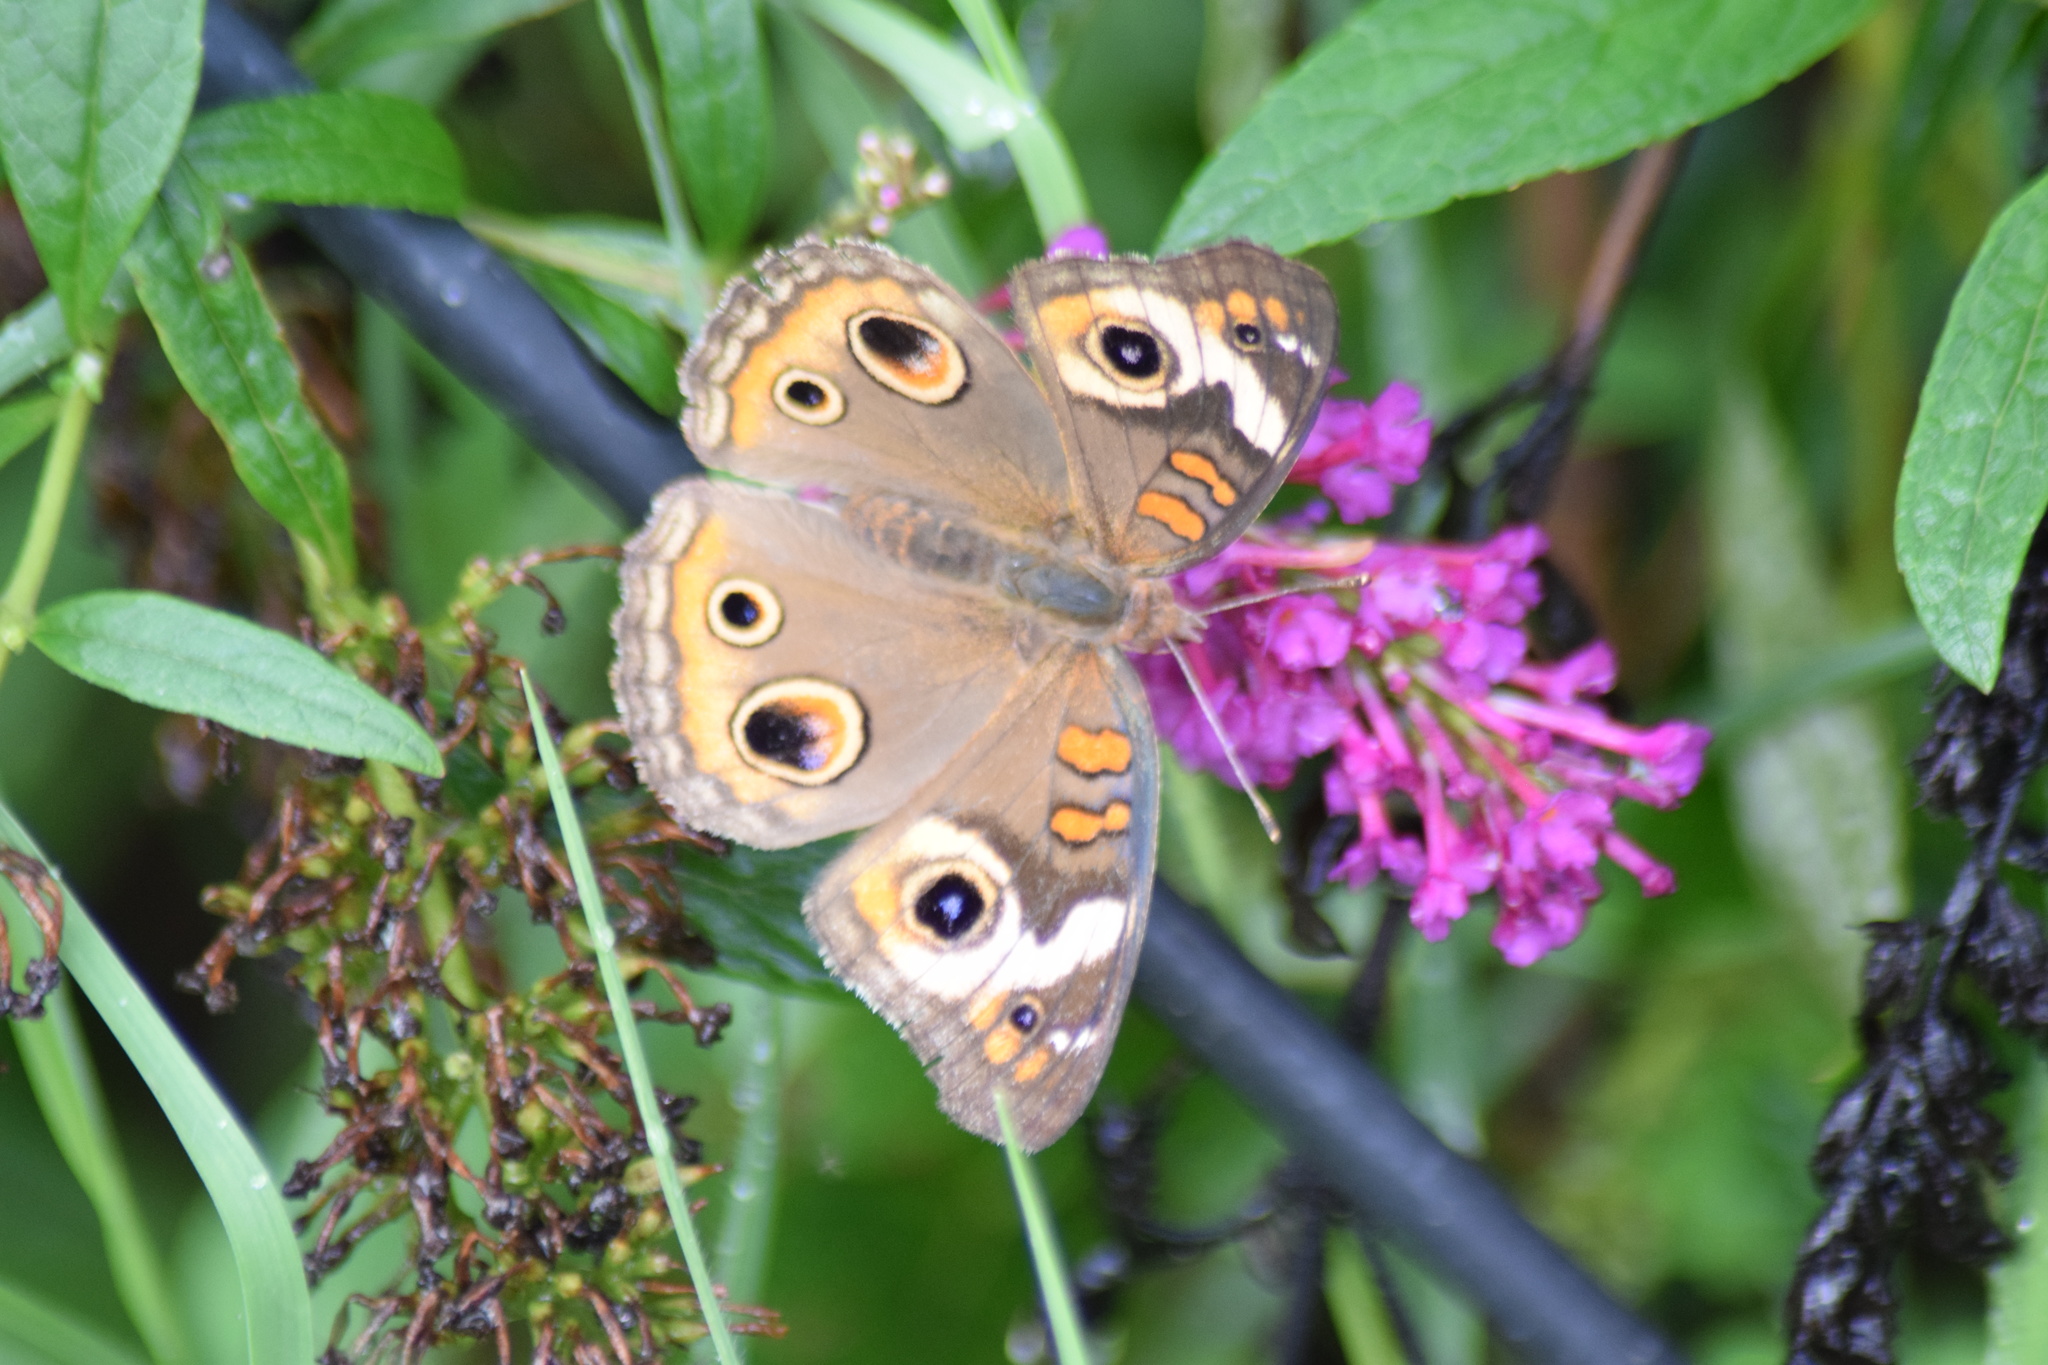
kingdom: Animalia
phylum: Arthropoda
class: Insecta
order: Lepidoptera
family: Nymphalidae
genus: Junonia
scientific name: Junonia coenia
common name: Common buckeye
